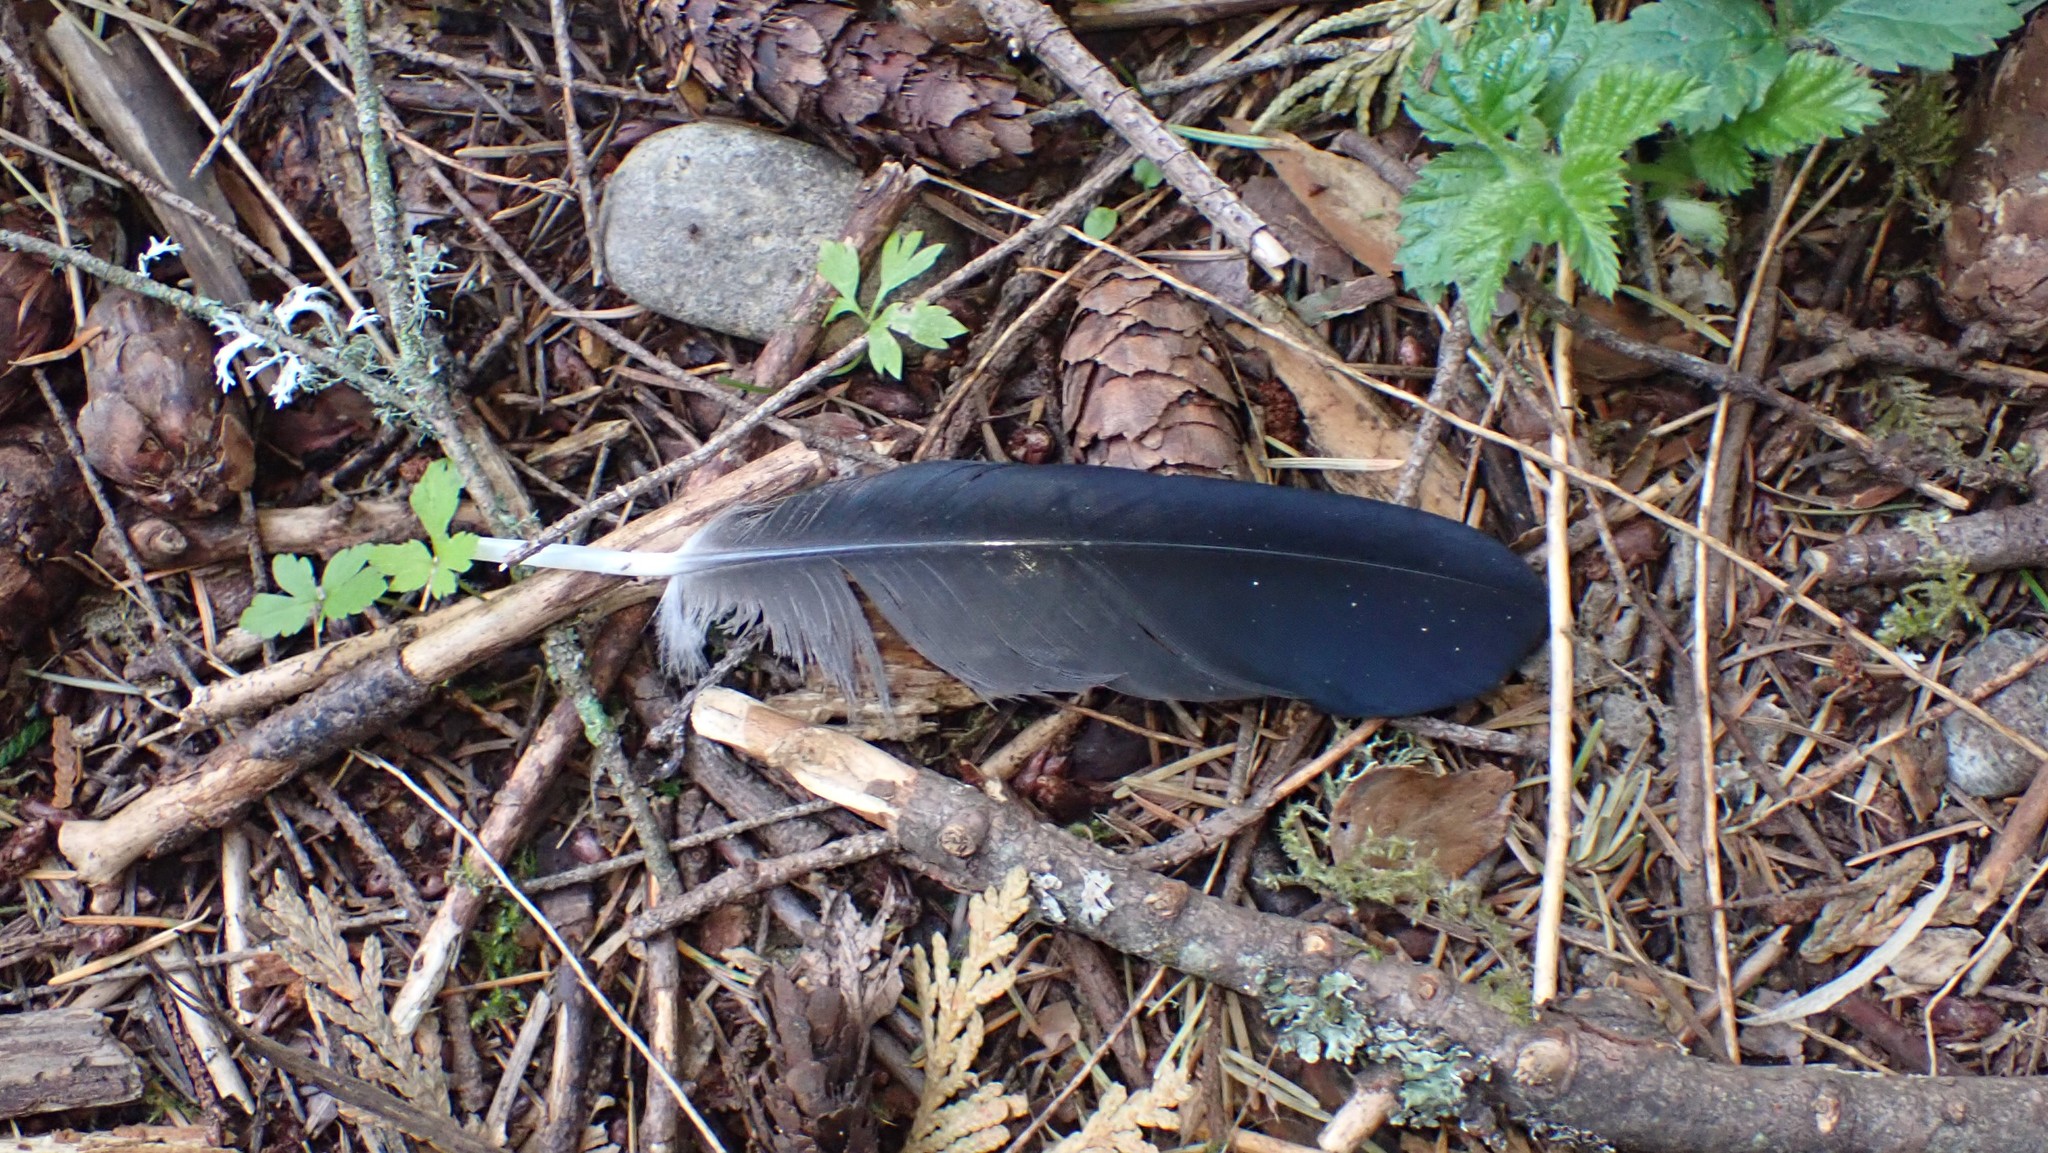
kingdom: Animalia
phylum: Chordata
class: Aves
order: Passeriformes
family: Corvidae
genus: Corvus
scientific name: Corvus brachyrhynchos
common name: American crow
